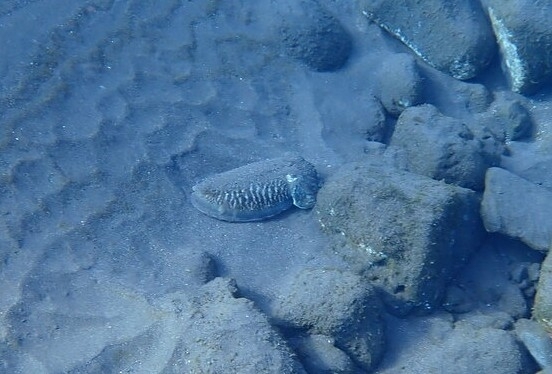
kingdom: Animalia
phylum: Mollusca
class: Cephalopoda
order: Sepiida
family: Sepiidae
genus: Sepia
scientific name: Sepia officinalis
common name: Common cuttlefish
